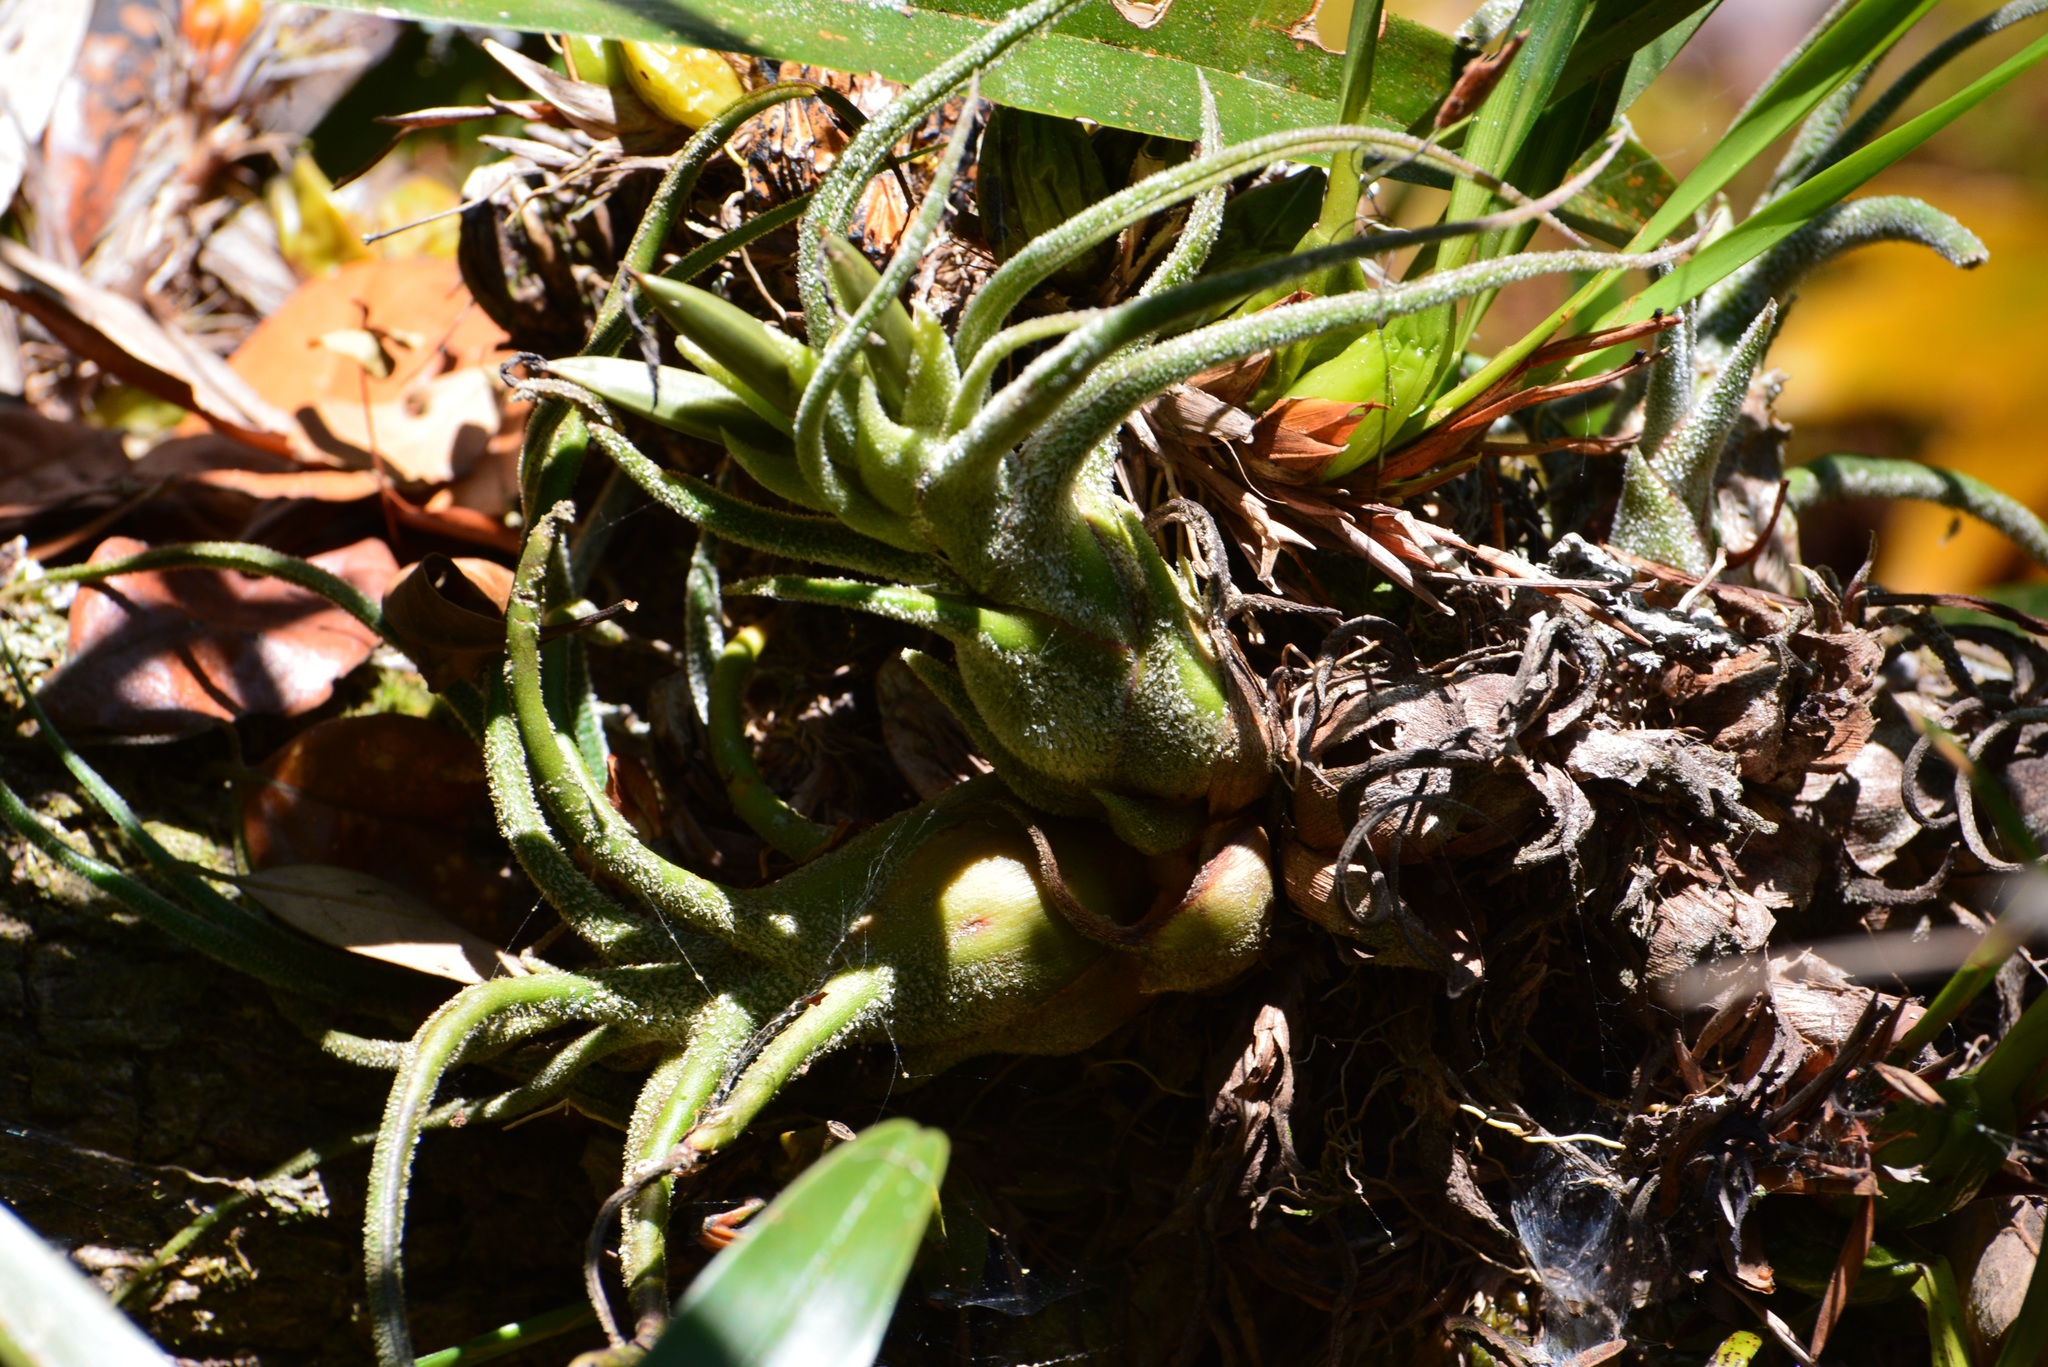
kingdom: Plantae
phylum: Tracheophyta
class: Liliopsida
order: Poales
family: Bromeliaceae
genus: Tillandsia
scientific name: Tillandsia pruinosa
